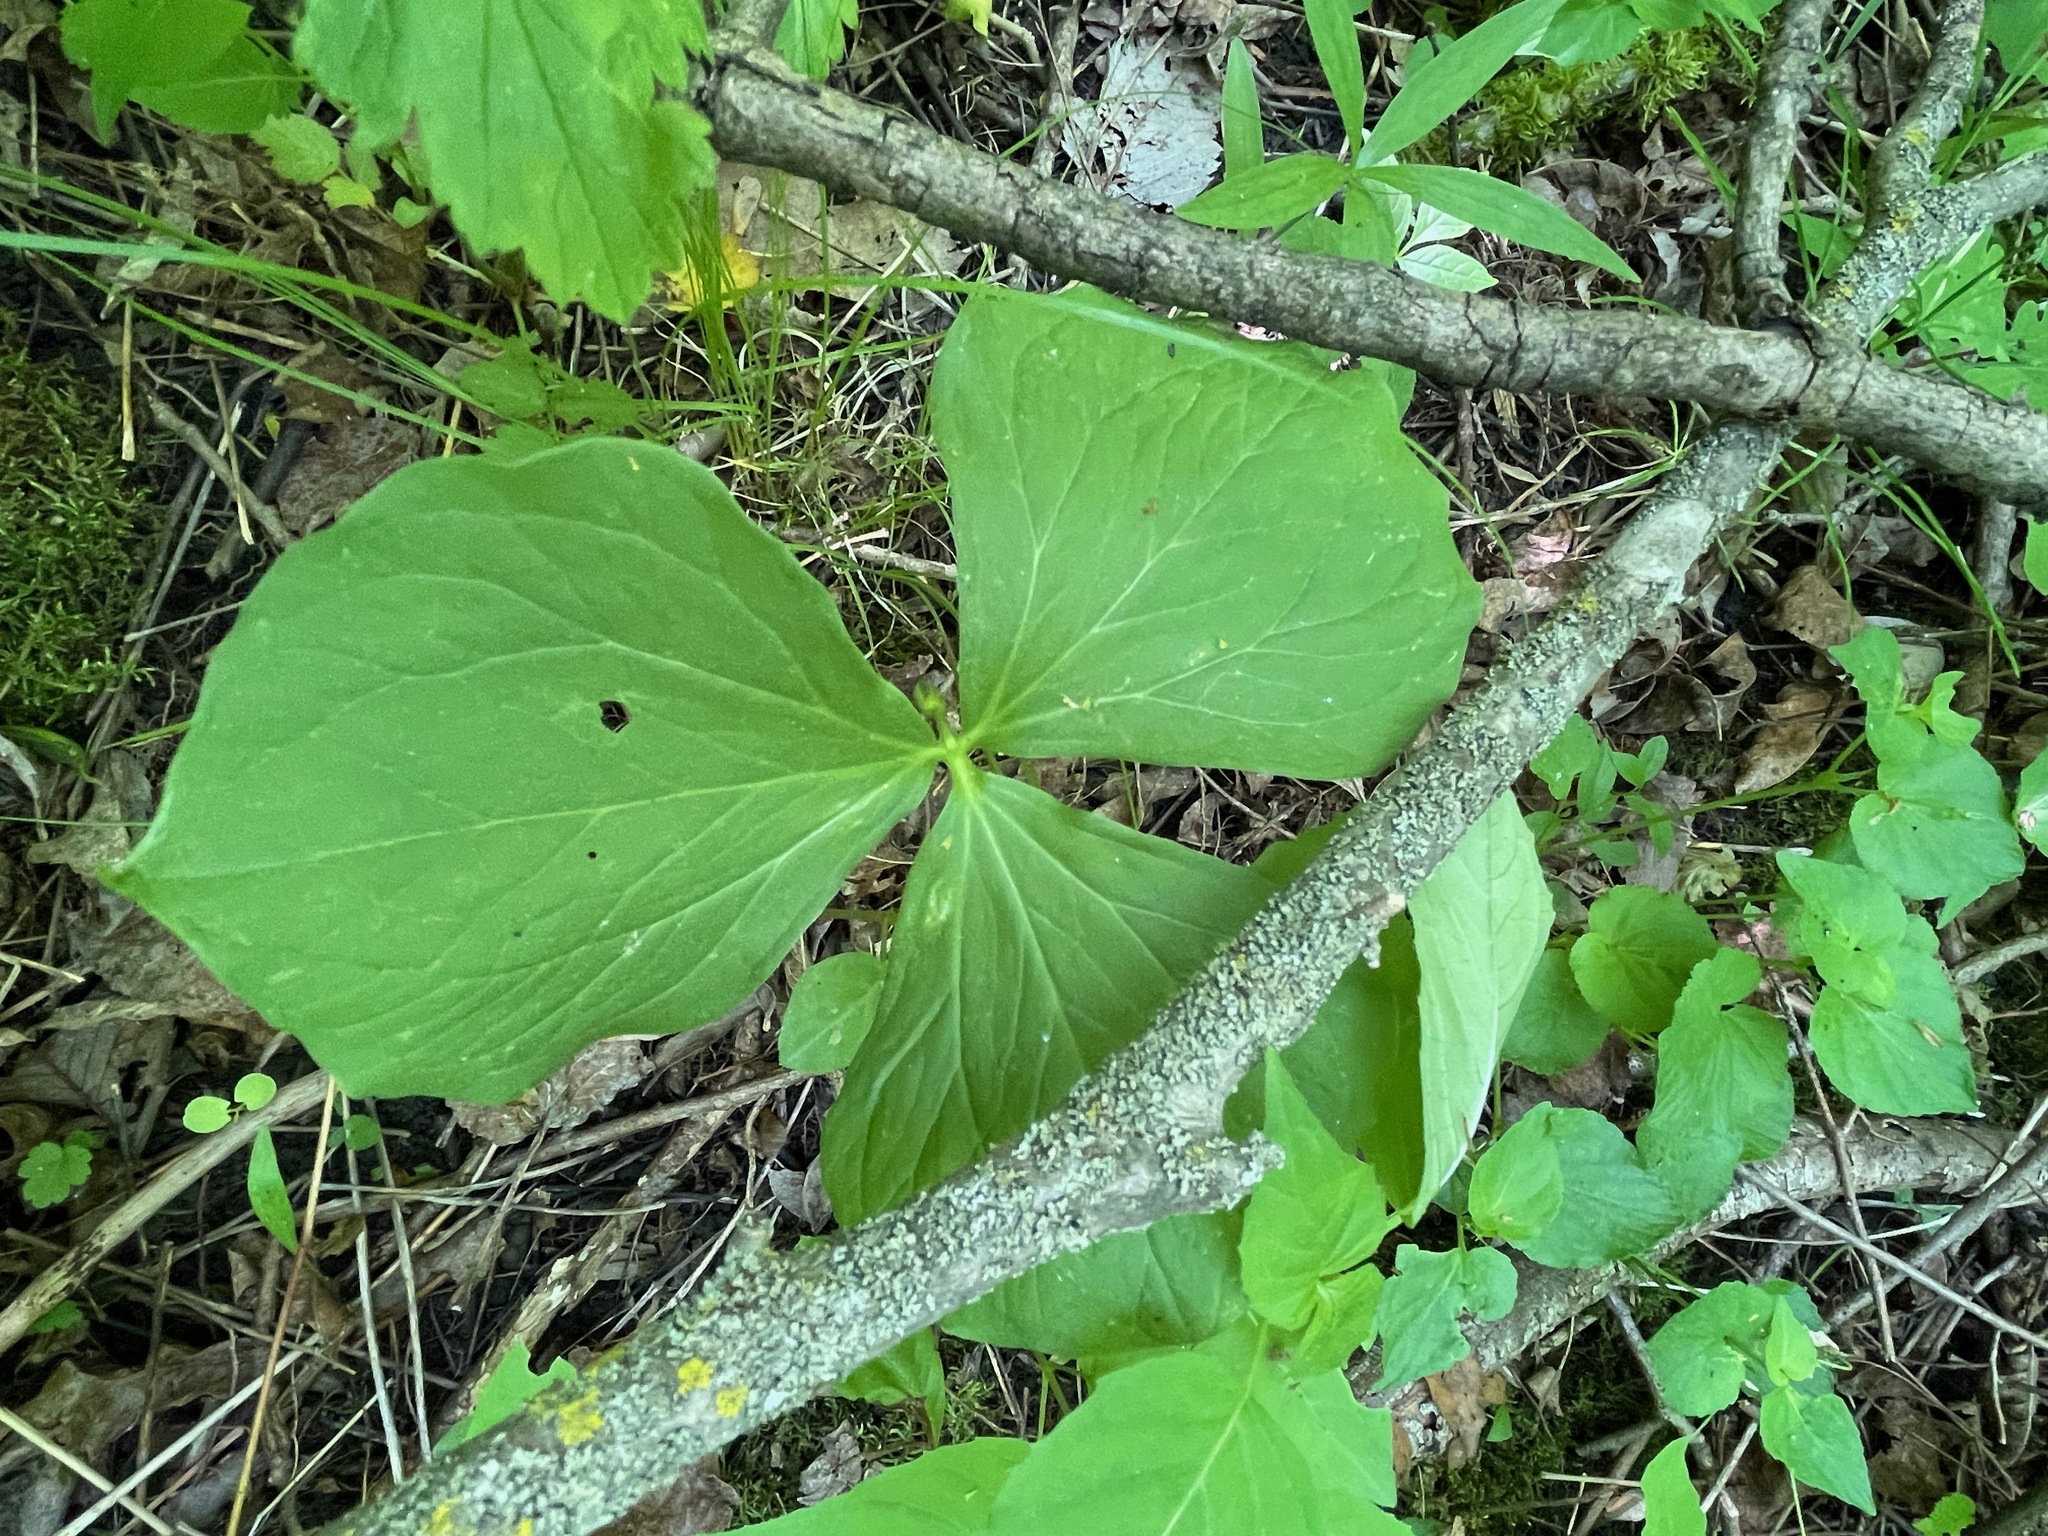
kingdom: Plantae
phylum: Tracheophyta
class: Liliopsida
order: Liliales
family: Melanthiaceae
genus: Trillium
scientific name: Trillium cernuum
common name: Nodding trillium
